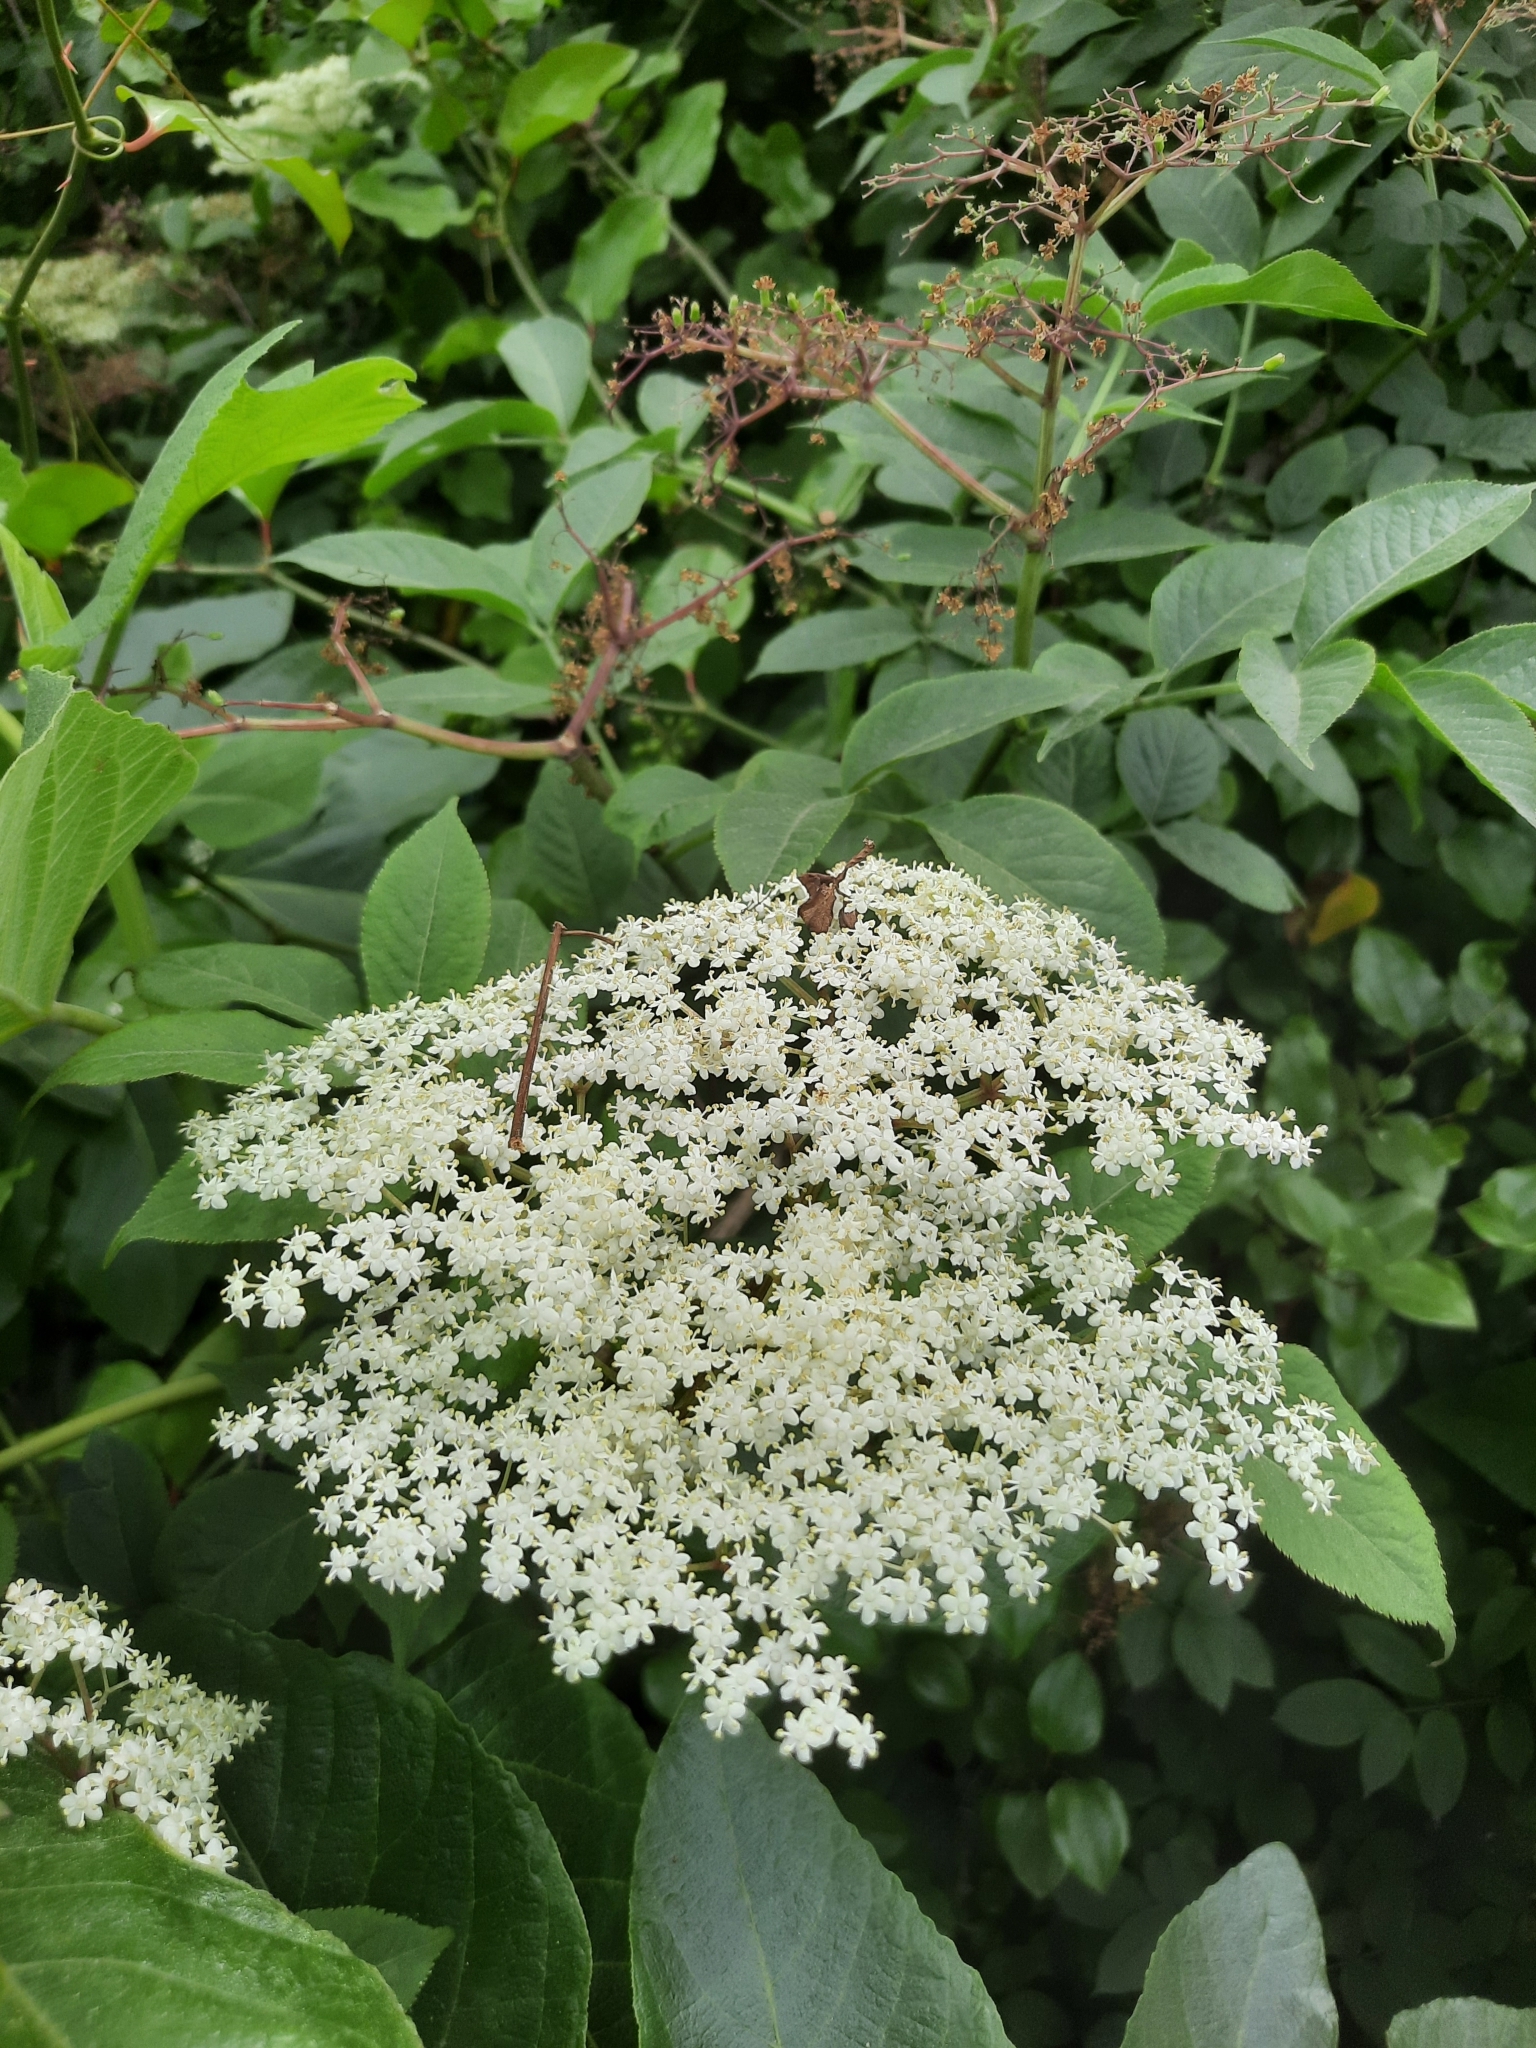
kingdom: Plantae
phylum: Tracheophyta
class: Magnoliopsida
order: Dipsacales
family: Viburnaceae
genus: Sambucus
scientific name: Sambucus nigra
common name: Elder
